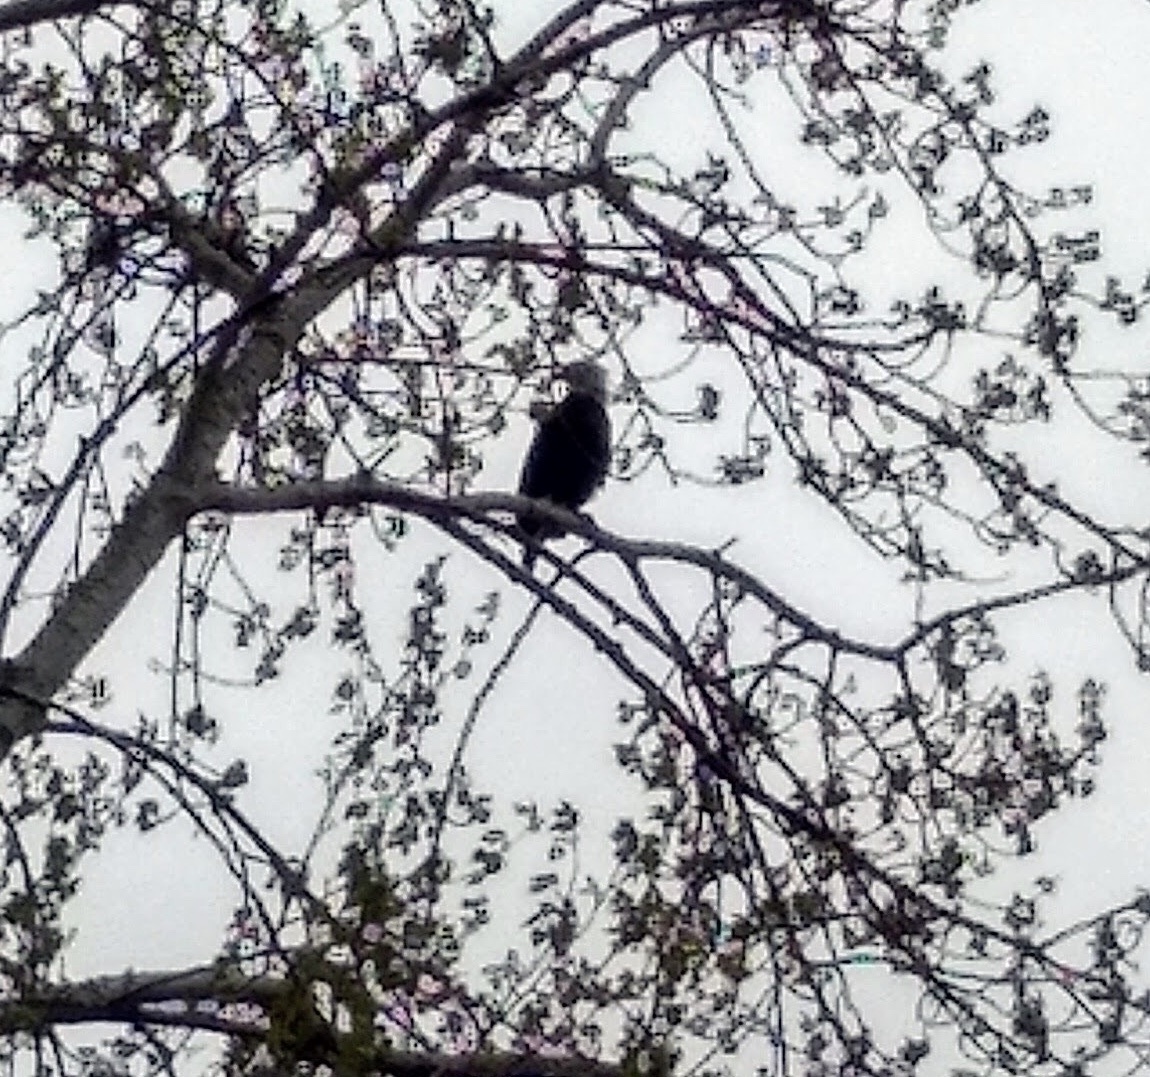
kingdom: Animalia
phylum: Chordata
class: Aves
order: Accipitriformes
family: Accipitridae
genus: Haliaeetus
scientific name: Haliaeetus leucocephalus
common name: Bald eagle
